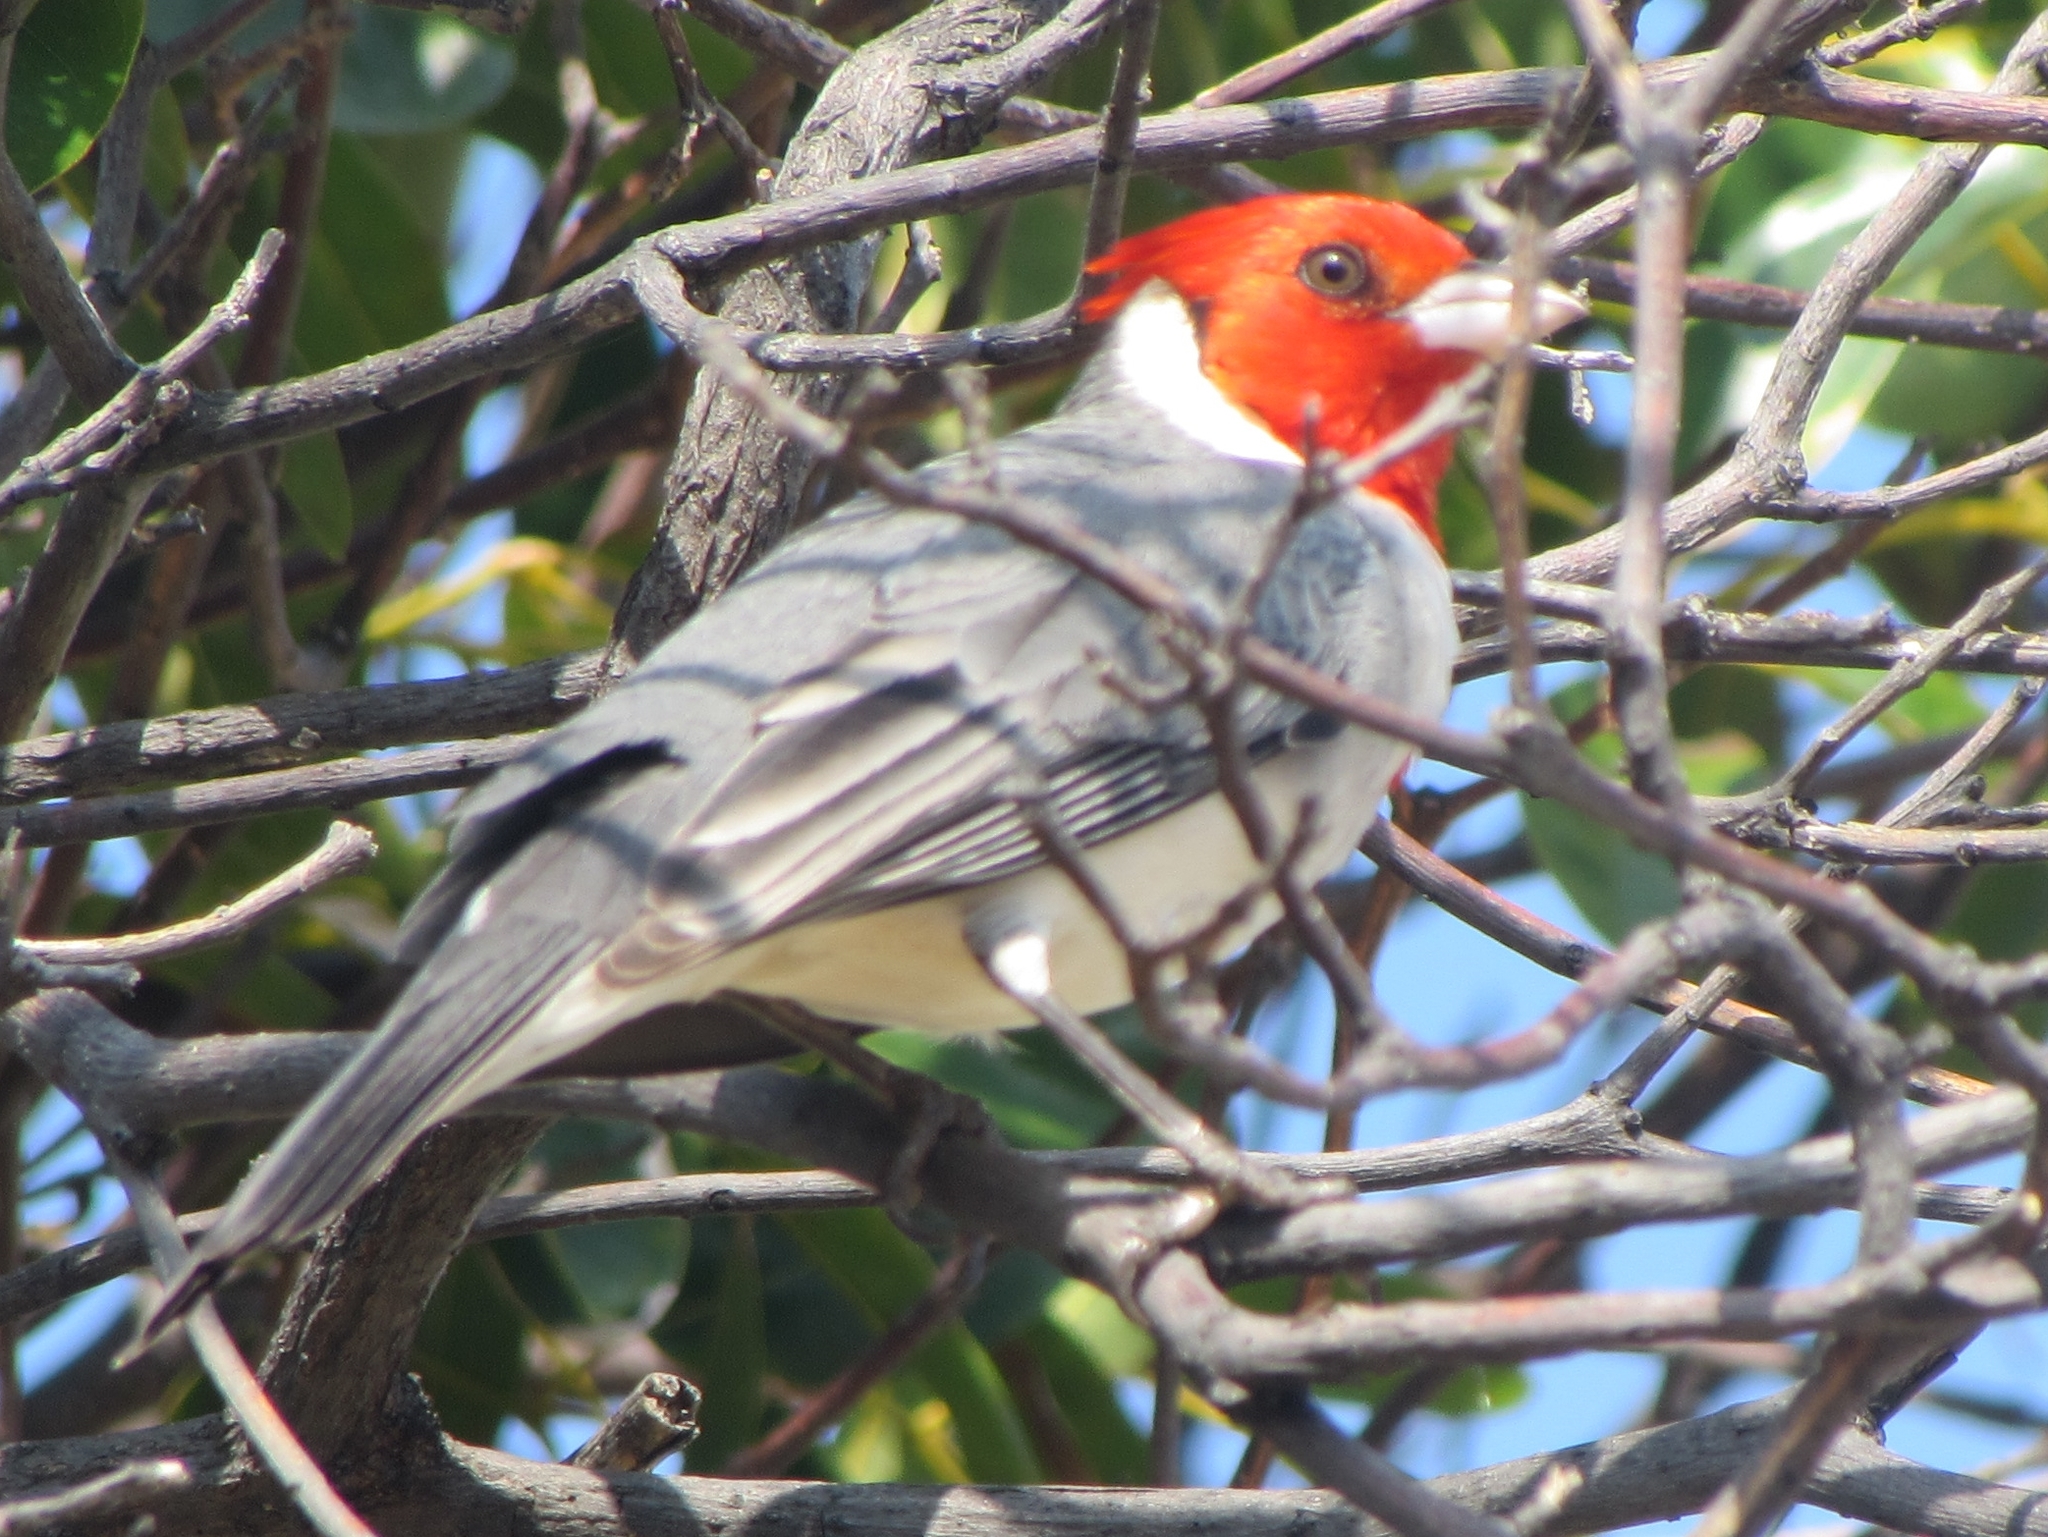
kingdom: Animalia
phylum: Chordata
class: Aves
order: Passeriformes
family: Thraupidae
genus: Paroaria
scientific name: Paroaria coronata
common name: Red-crested cardinal
